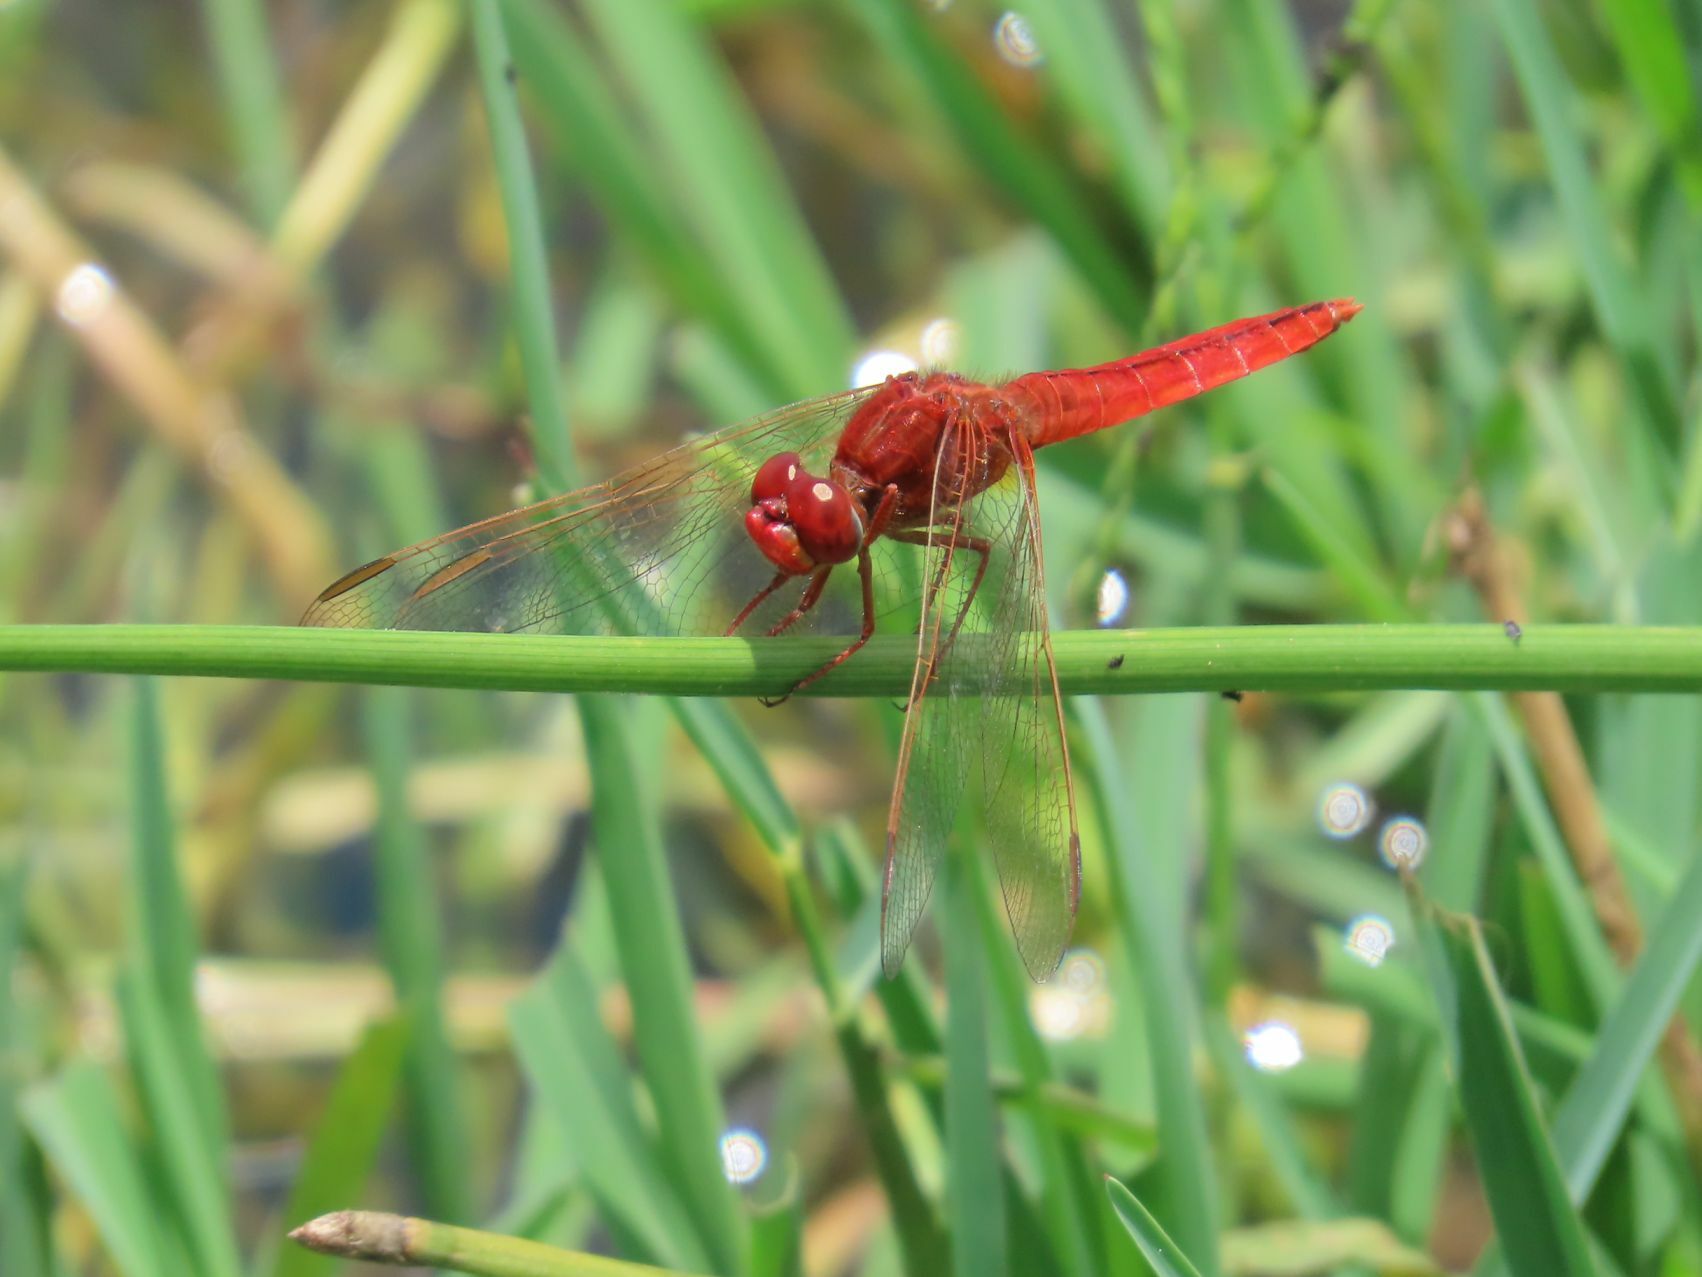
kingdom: Animalia
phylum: Arthropoda
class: Insecta
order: Odonata
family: Libellulidae
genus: Crocothemis
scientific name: Crocothemis erythraea
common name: Scarlet dragonfly
